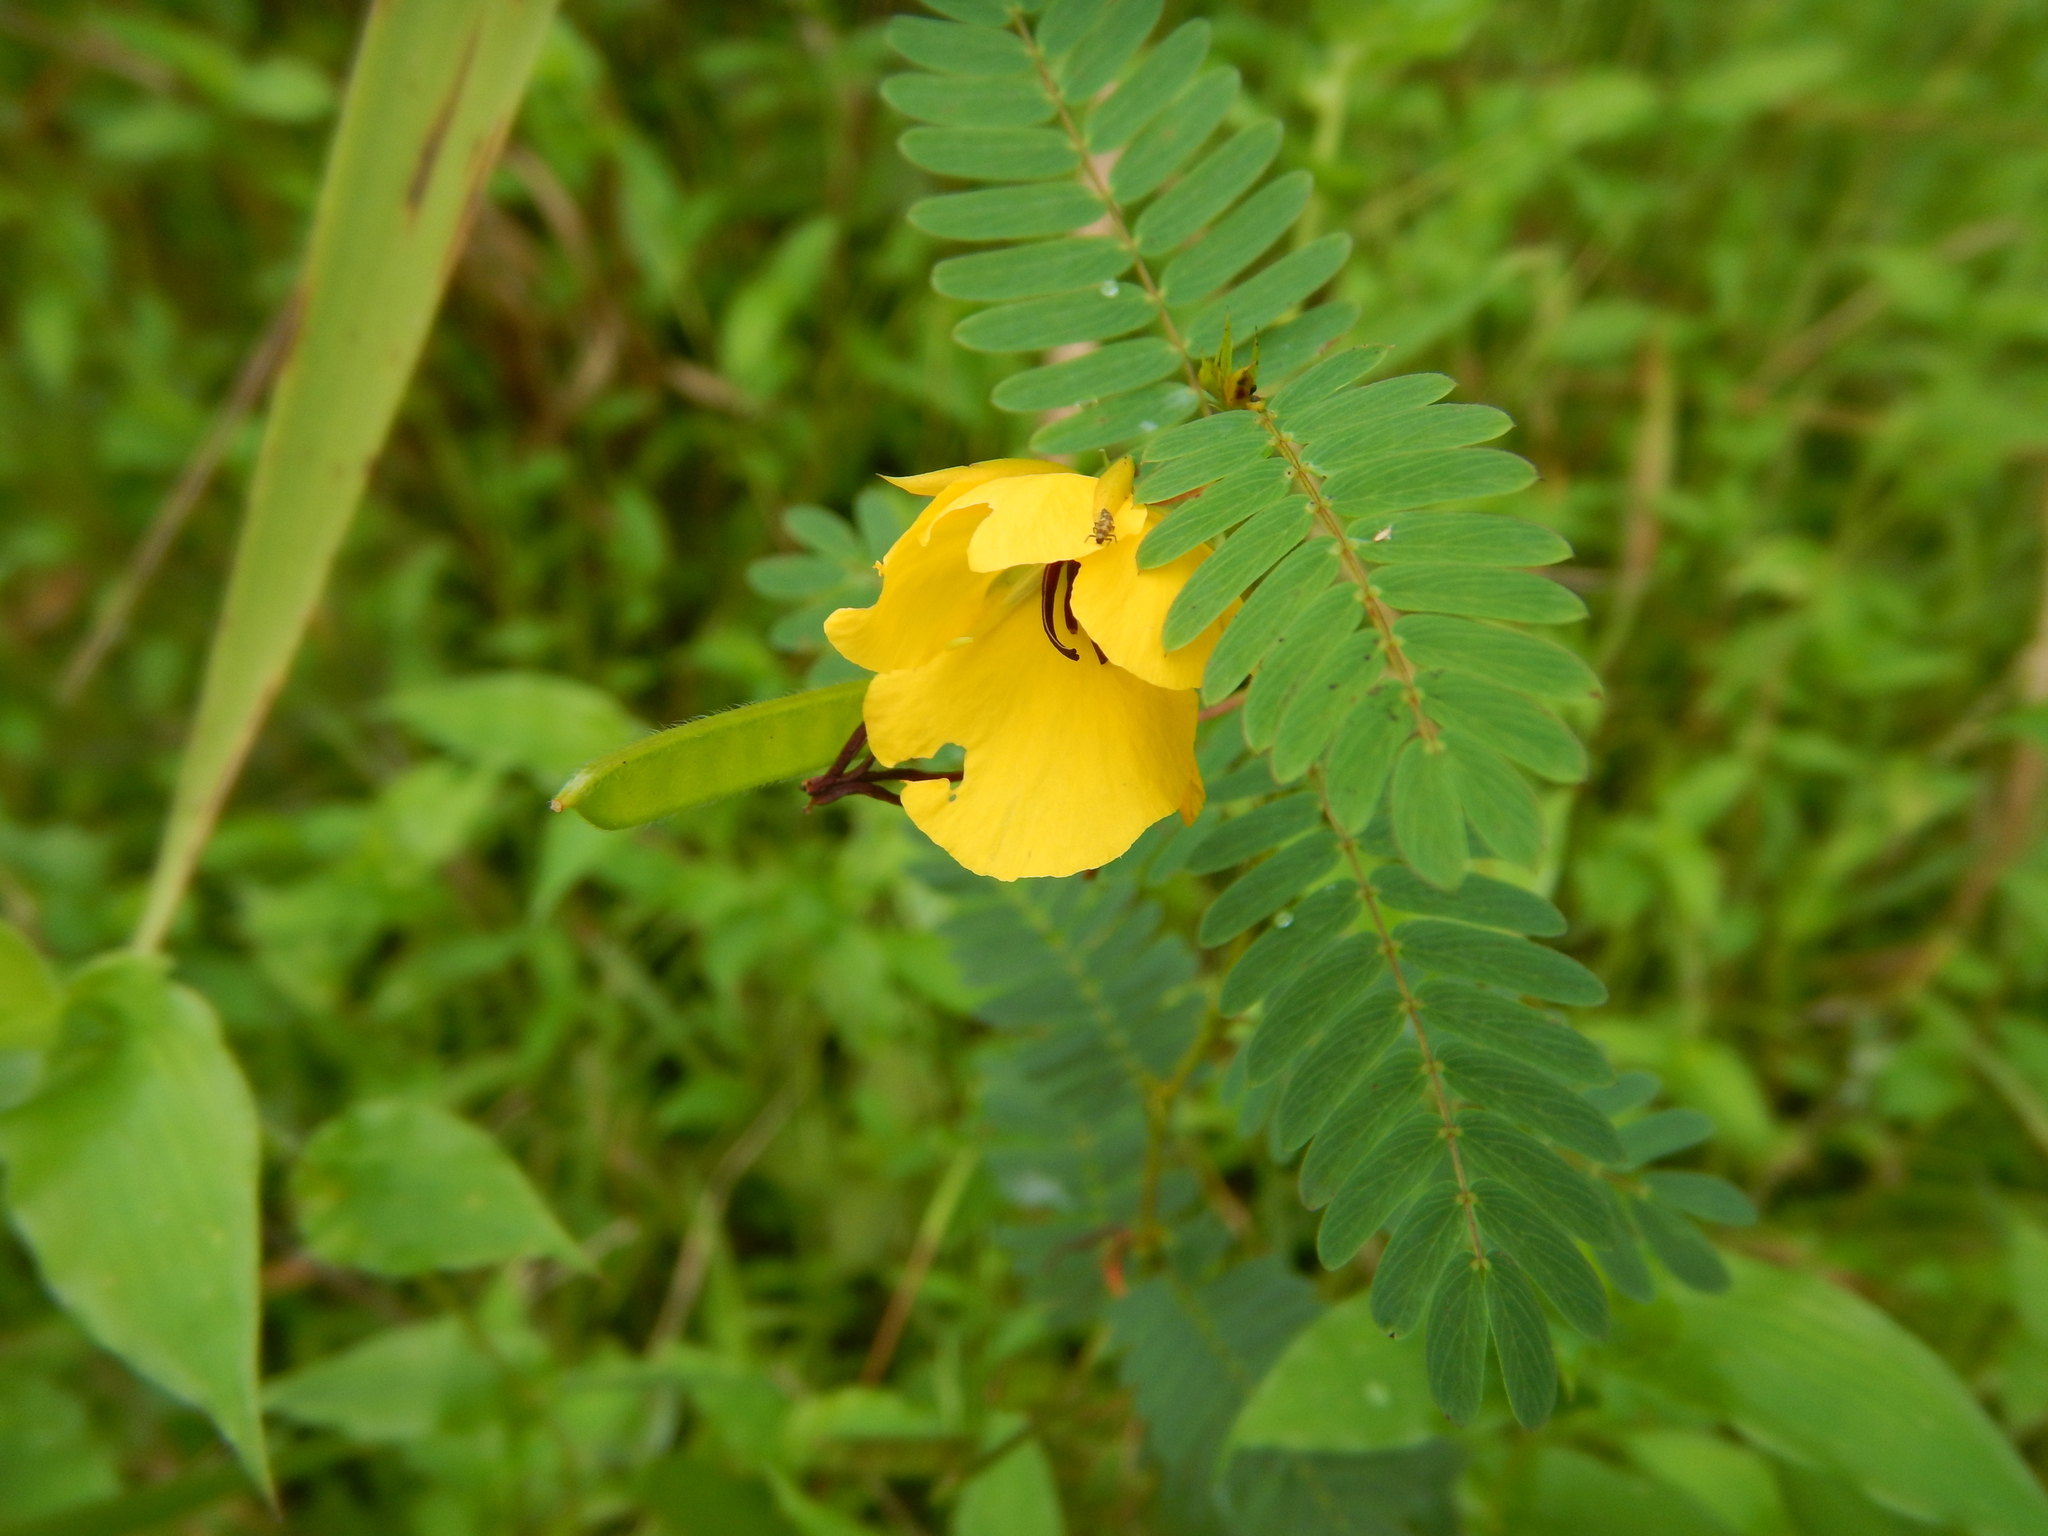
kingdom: Plantae
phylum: Tracheophyta
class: Magnoliopsida
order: Fabales
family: Fabaceae
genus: Chamaecrista
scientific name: Chamaecrista fasciculata
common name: Golden cassia
